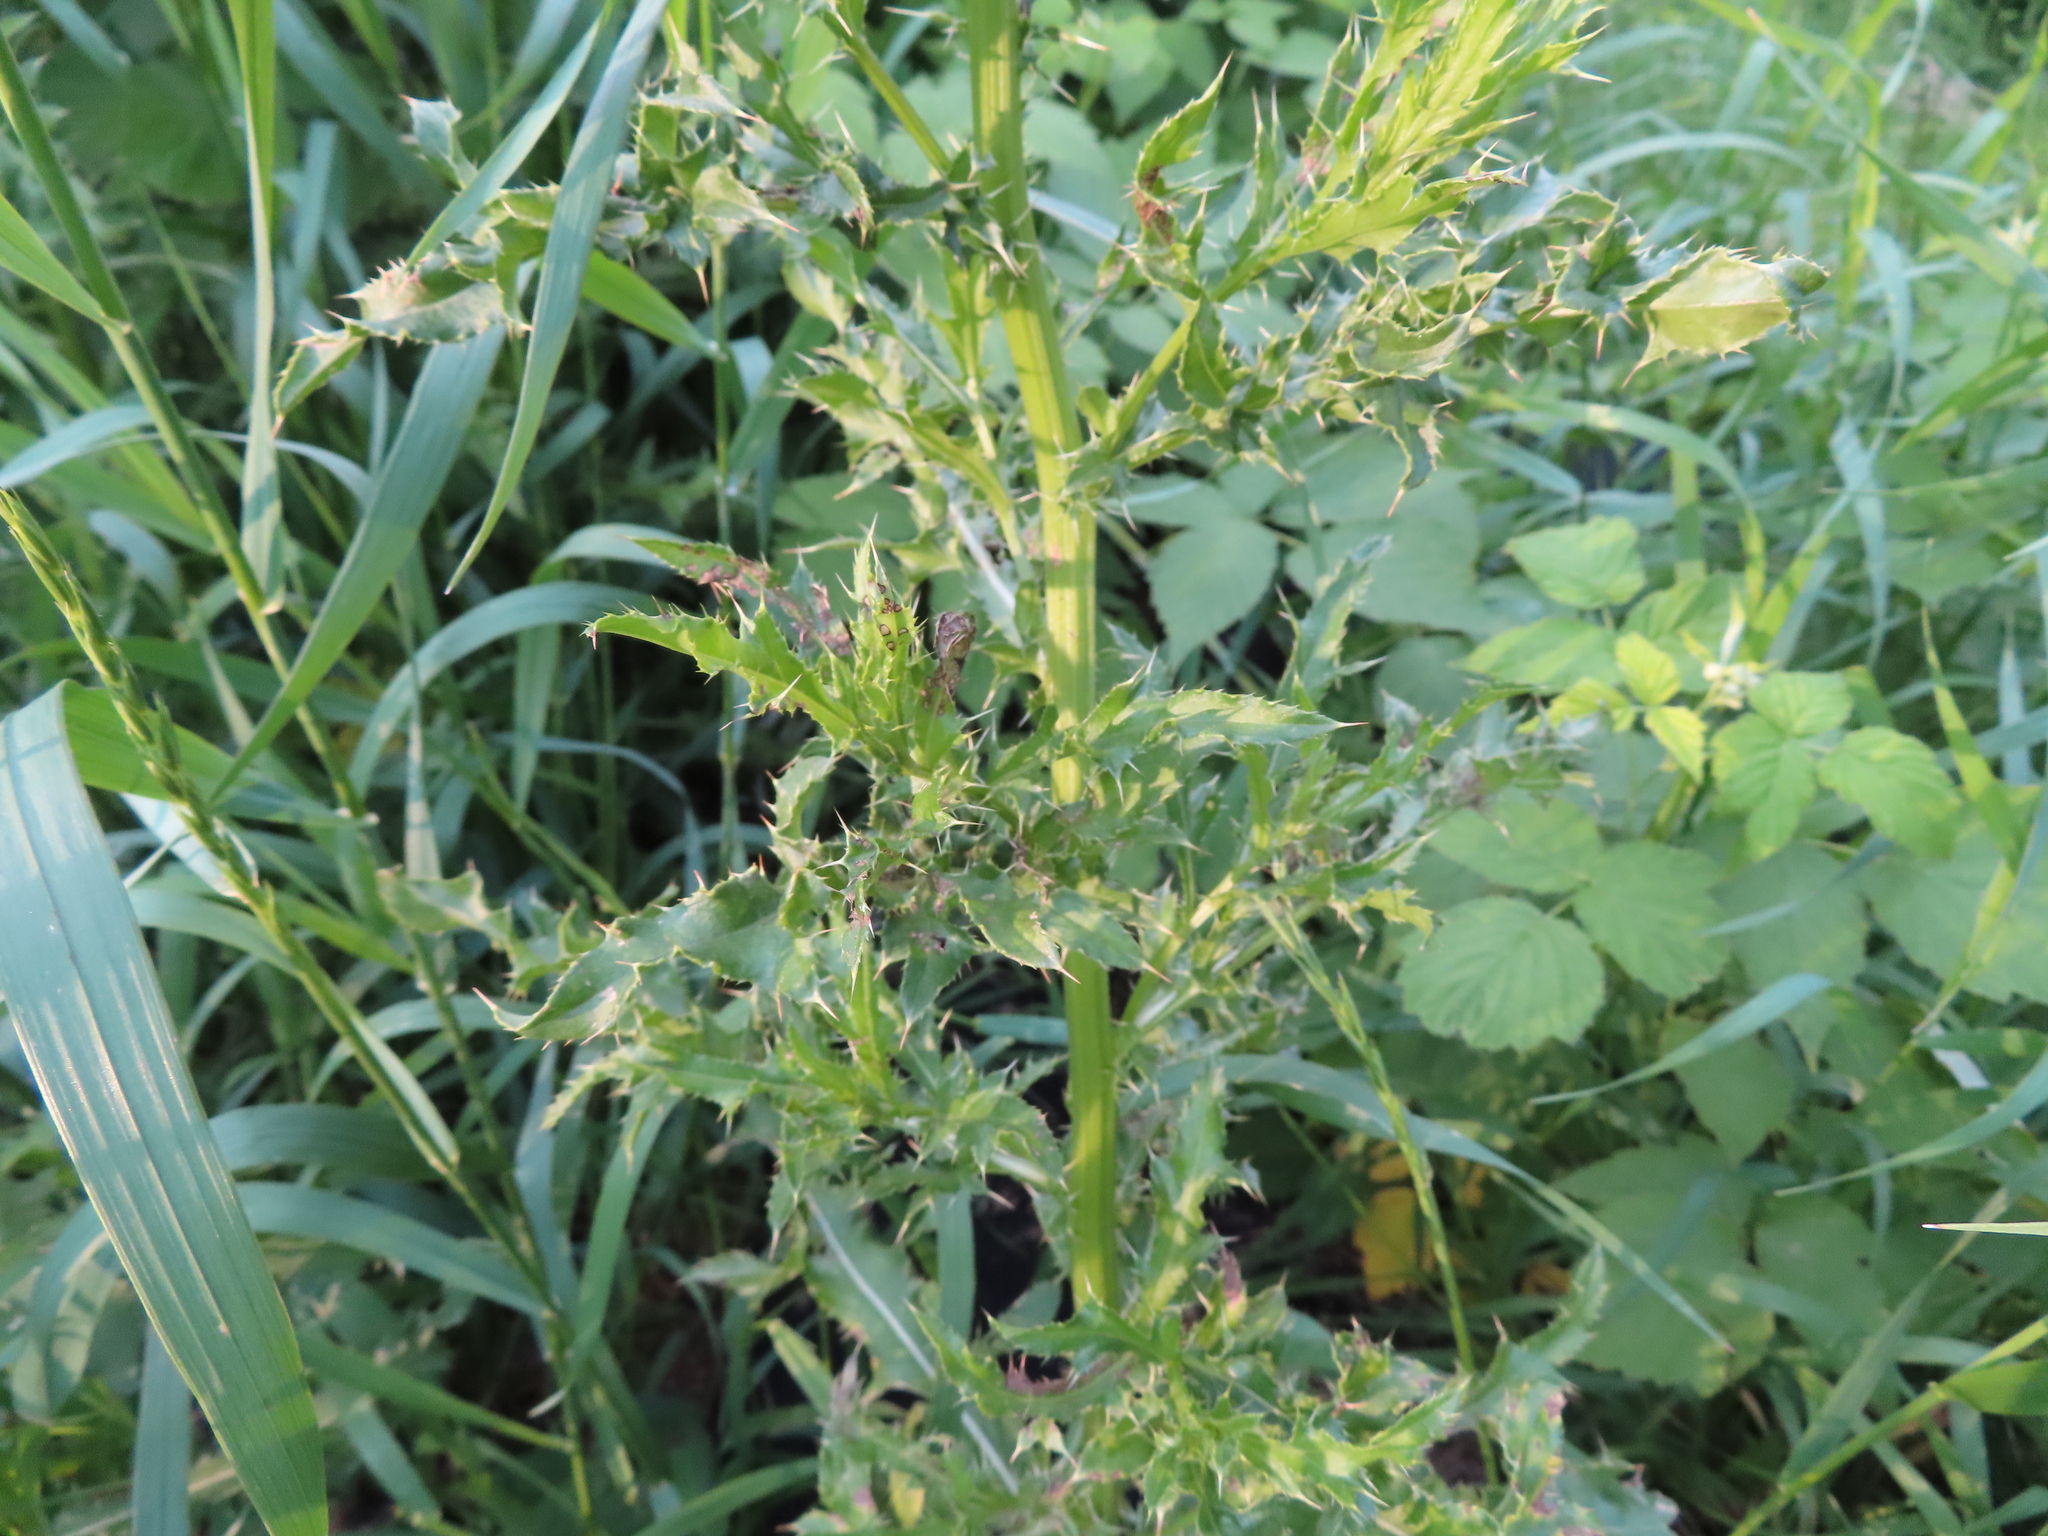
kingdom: Plantae
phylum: Tracheophyta
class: Magnoliopsida
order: Asterales
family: Asteraceae
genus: Cirsium
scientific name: Cirsium arvense
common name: Creeping thistle
